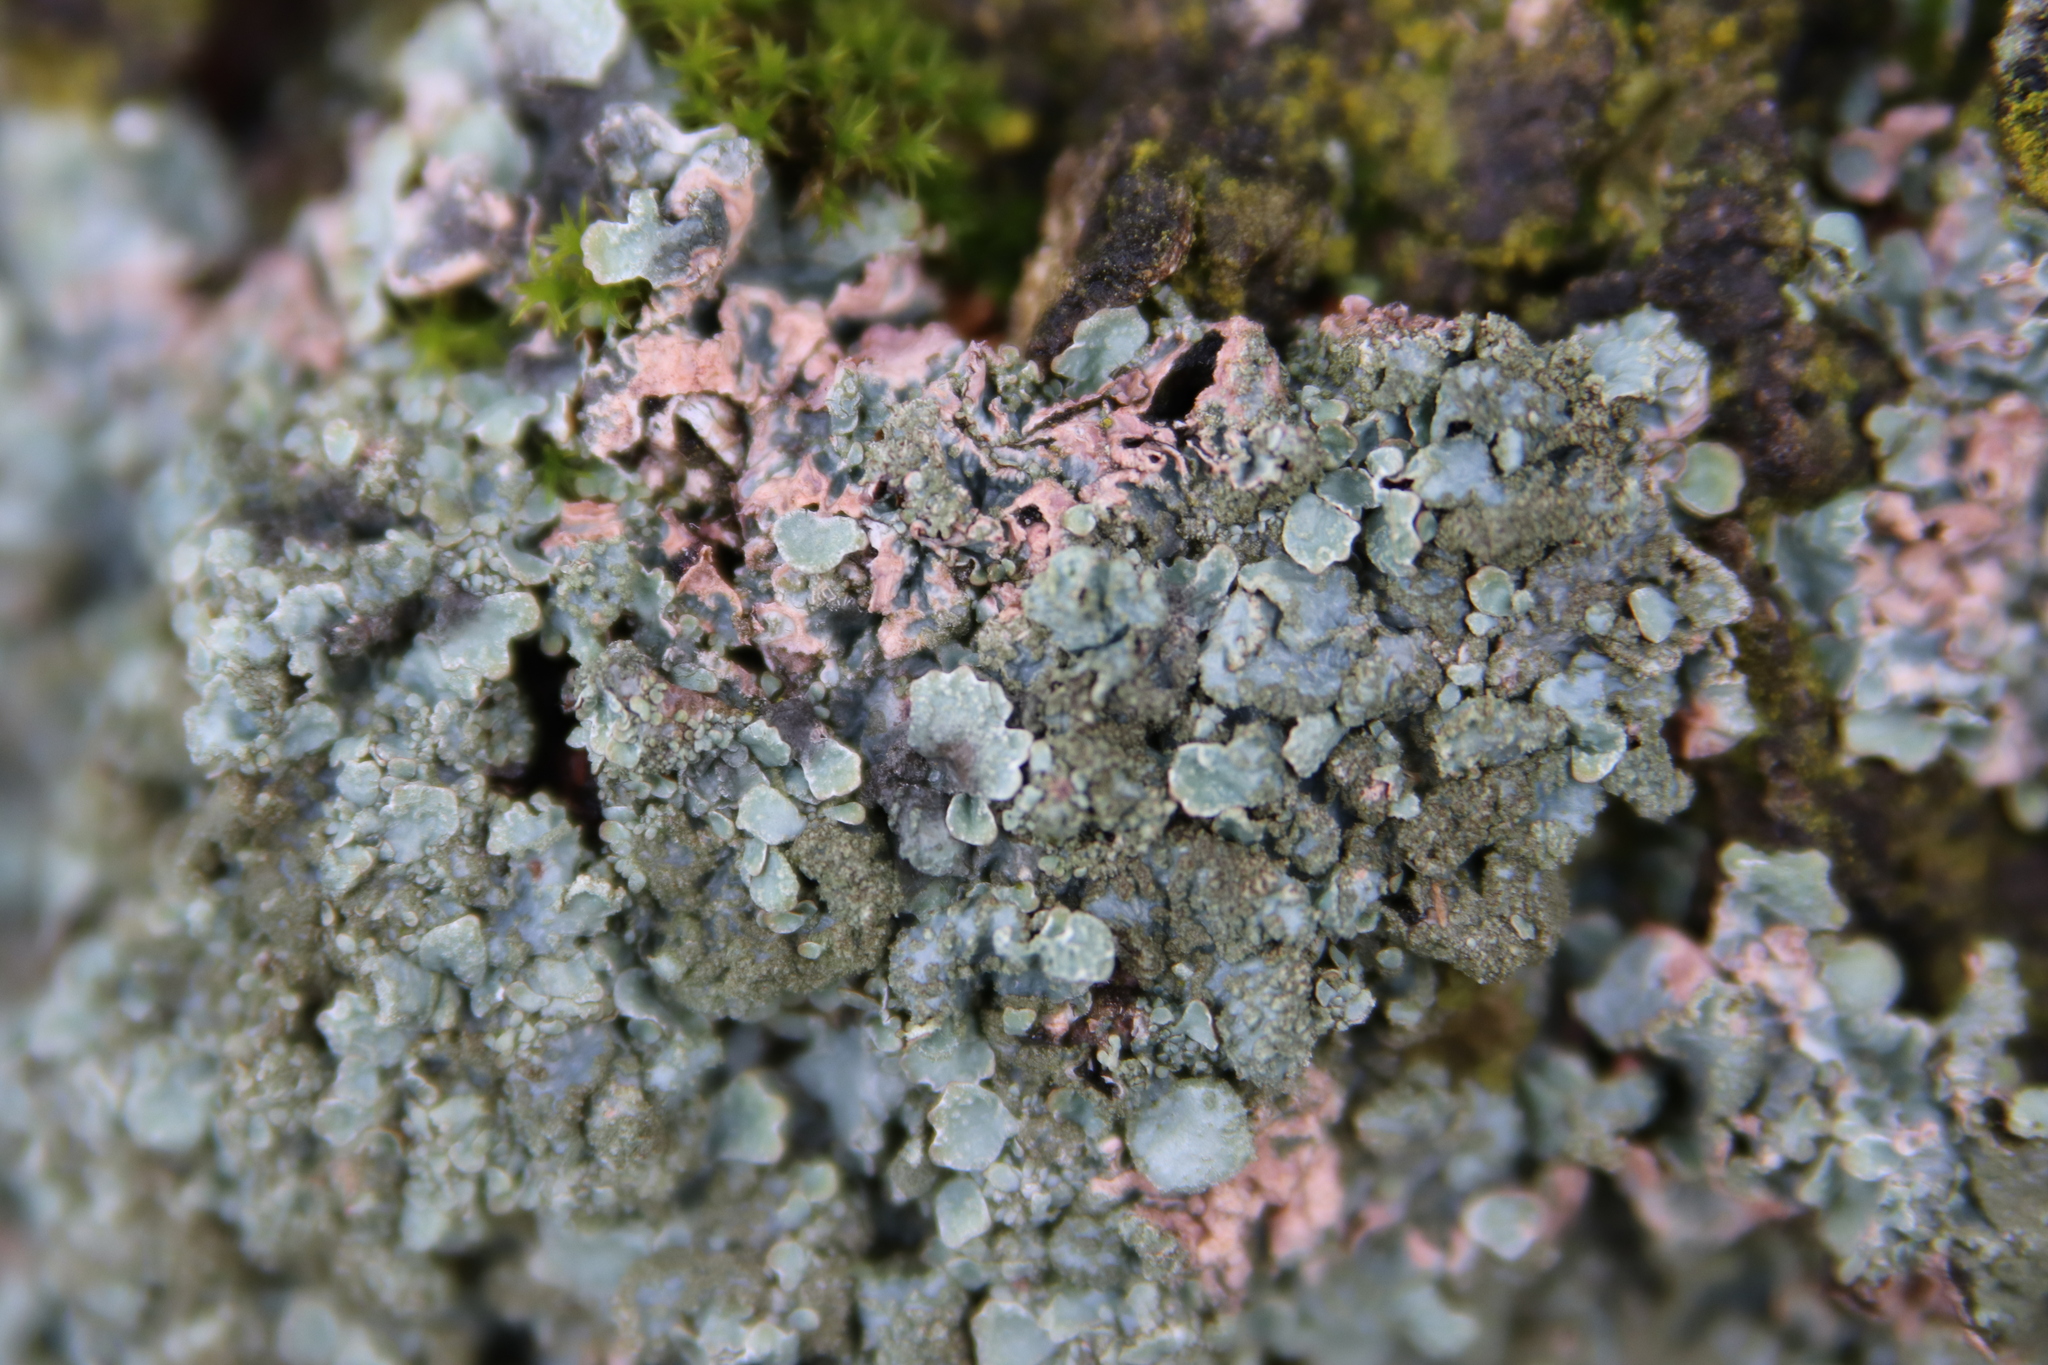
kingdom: Fungi
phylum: Ascomycota
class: Lecanoromycetes
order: Lecanorales
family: Parmeliaceae
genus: Parmelia
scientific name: Parmelia sulcata
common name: Netted shield lichen
